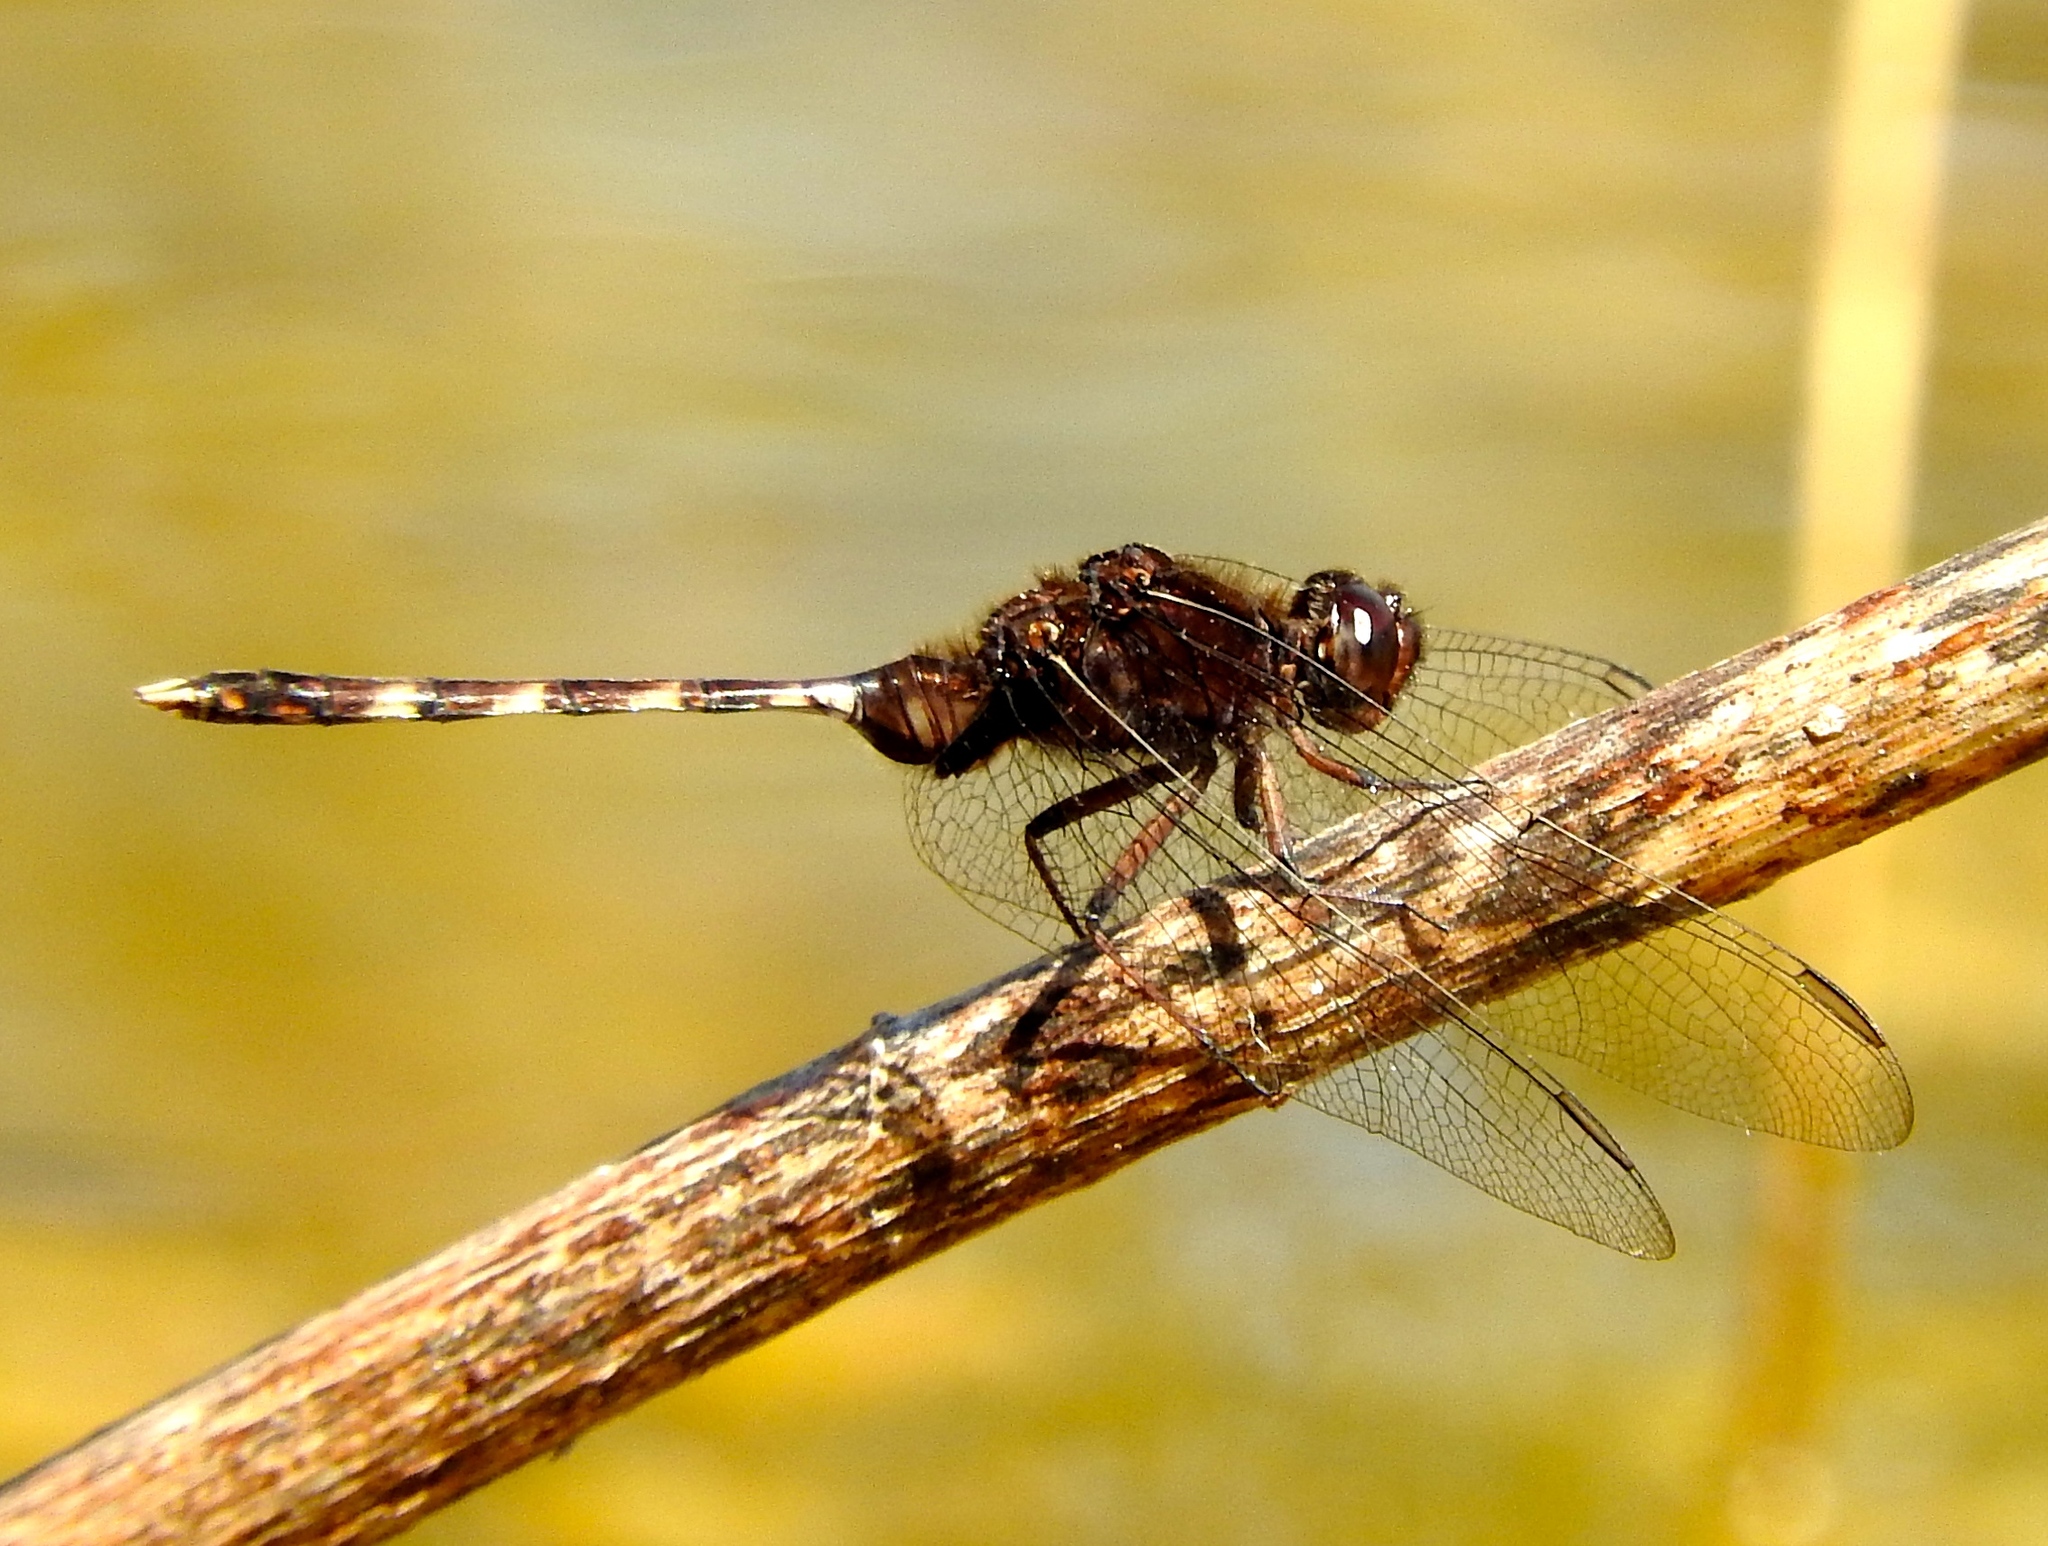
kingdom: Animalia
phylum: Arthropoda
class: Insecta
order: Odonata
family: Libellulidae
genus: Erythemis
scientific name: Erythemis plebeja
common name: Pin-tailed pondhawk
